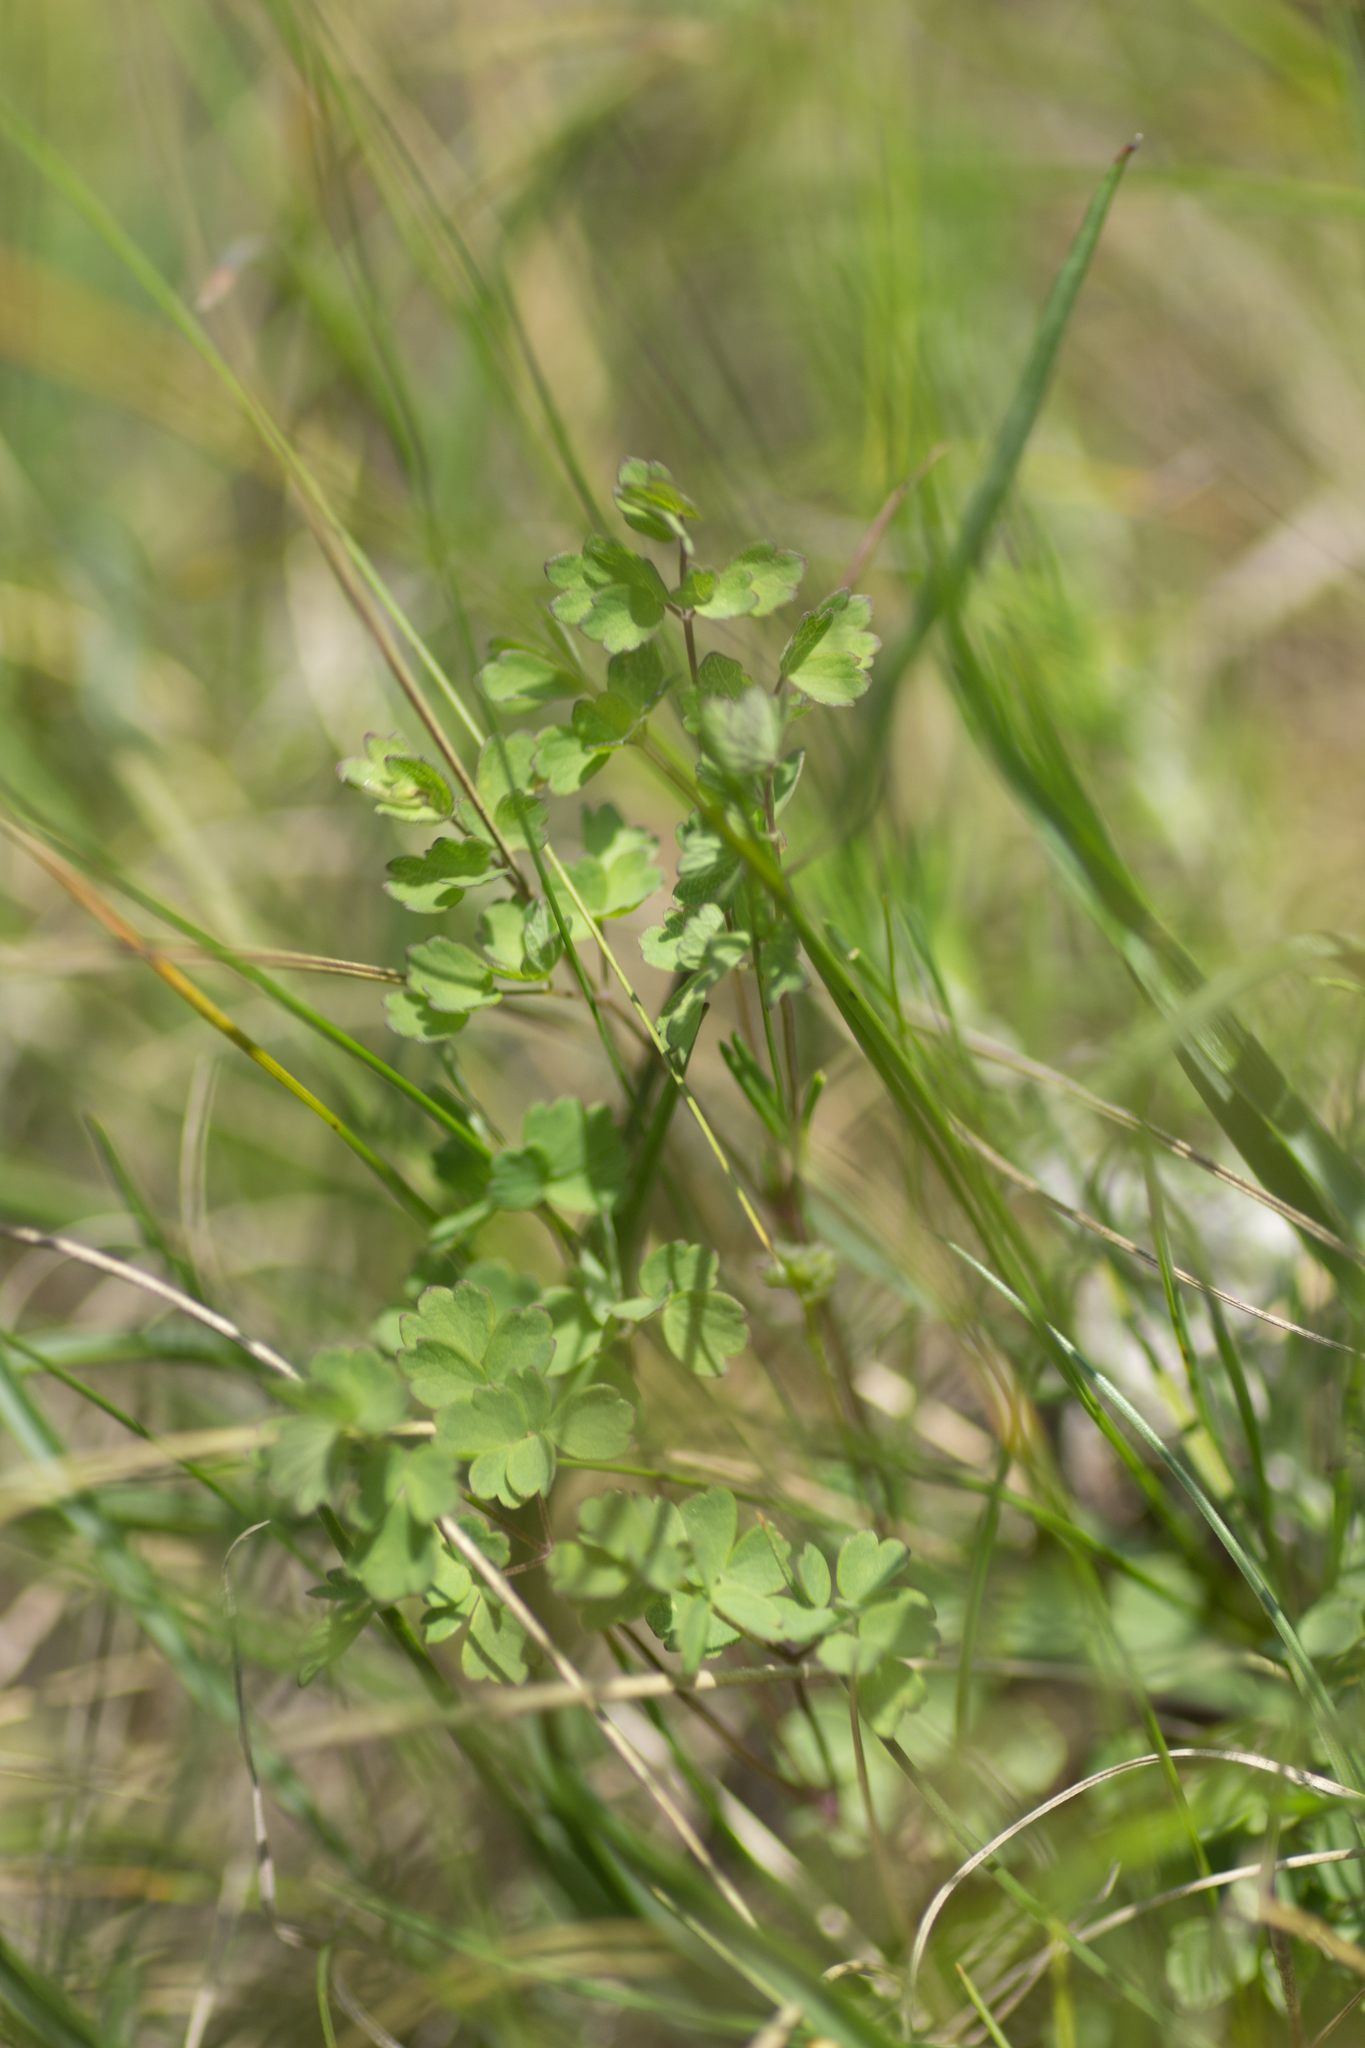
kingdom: Plantae
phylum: Tracheophyta
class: Magnoliopsida
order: Ranunculales
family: Ranunculaceae
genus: Thalictrum
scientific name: Thalictrum minus
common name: Lesser meadow-rue
